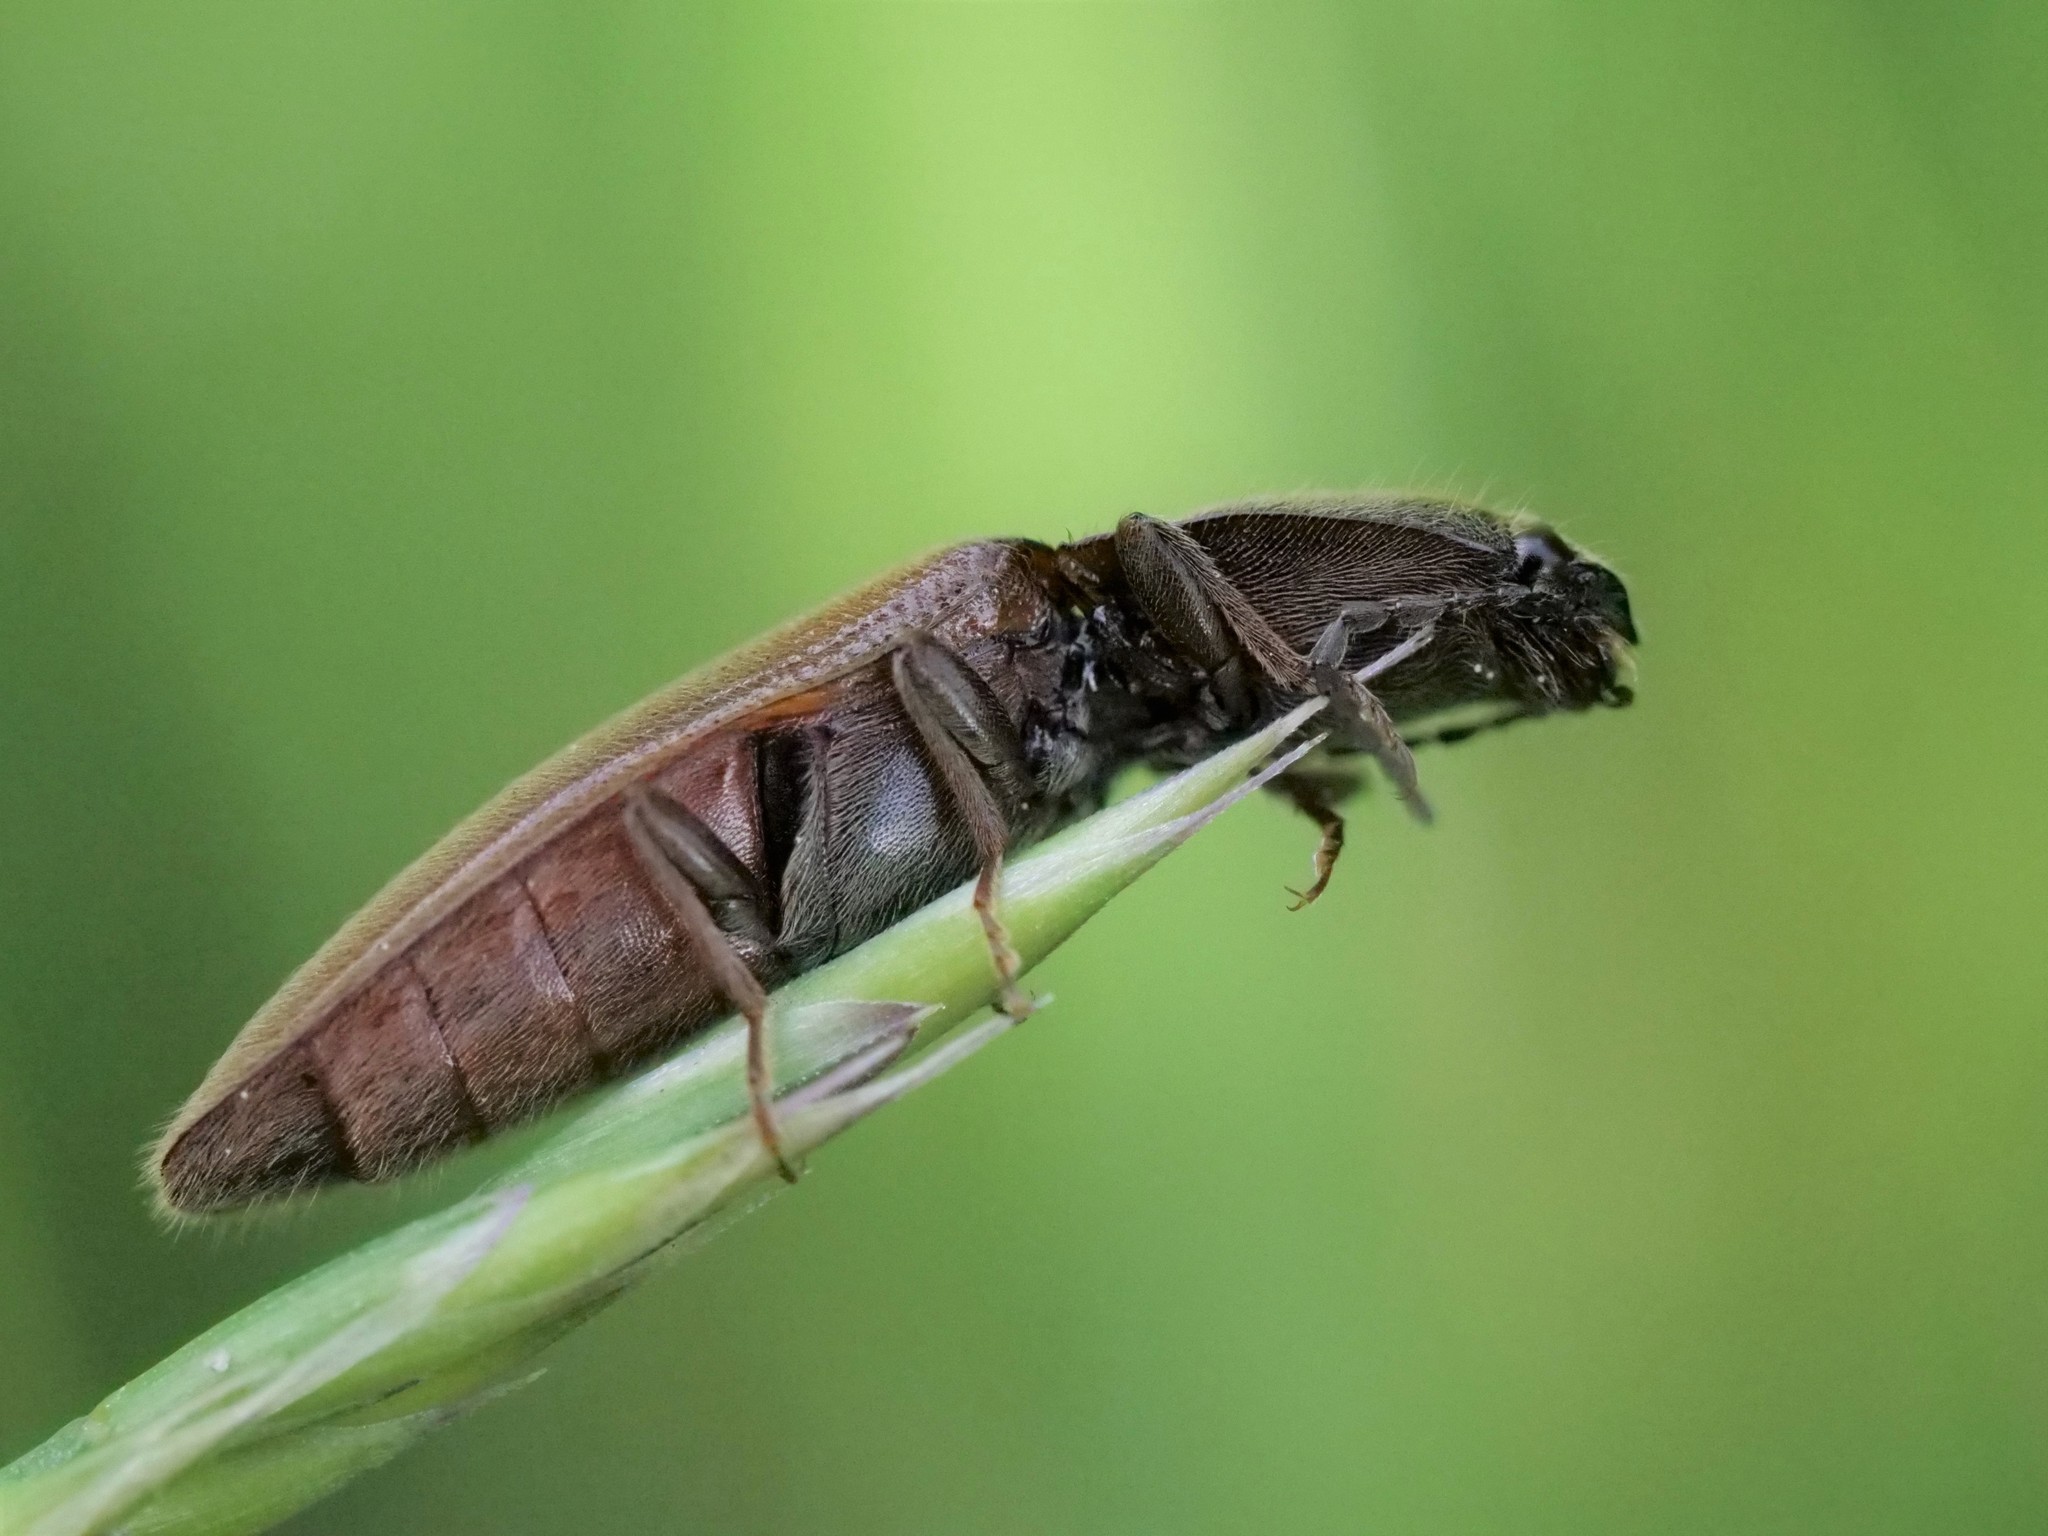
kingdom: Animalia
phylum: Arthropoda
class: Insecta
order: Coleoptera
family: Elateridae
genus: Athous
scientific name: Athous haemorrhoidalis
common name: Red-brown click beetle
